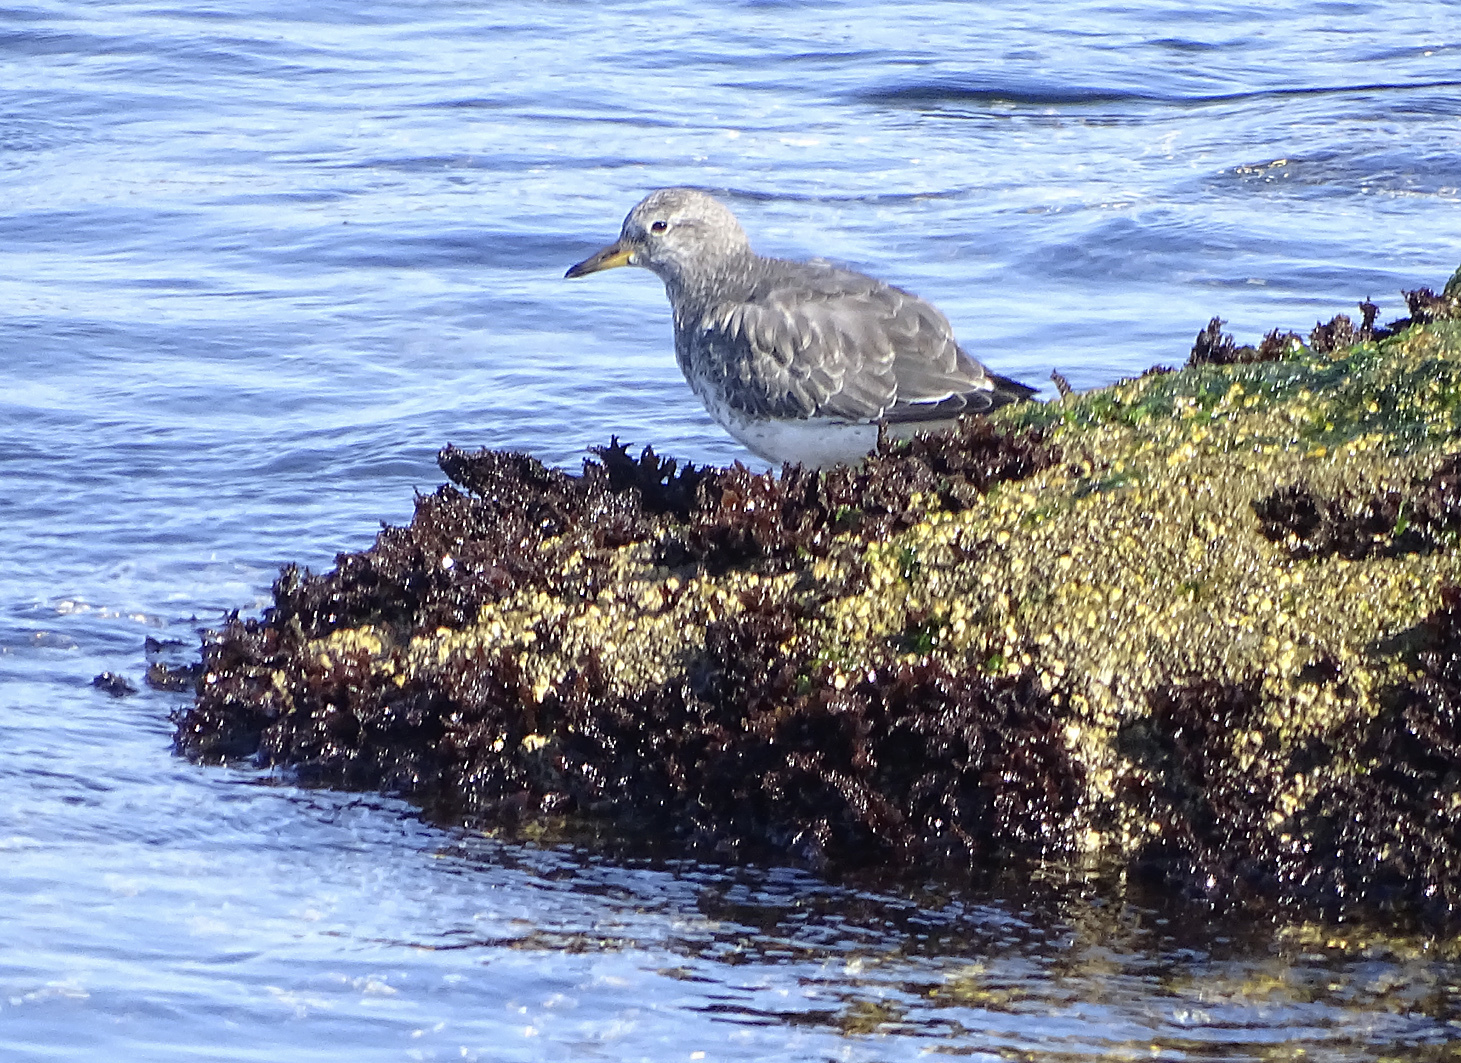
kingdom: Animalia
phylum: Chordata
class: Aves
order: Charadriiformes
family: Scolopacidae
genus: Calidris
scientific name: Calidris virgata
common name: Surfbird
